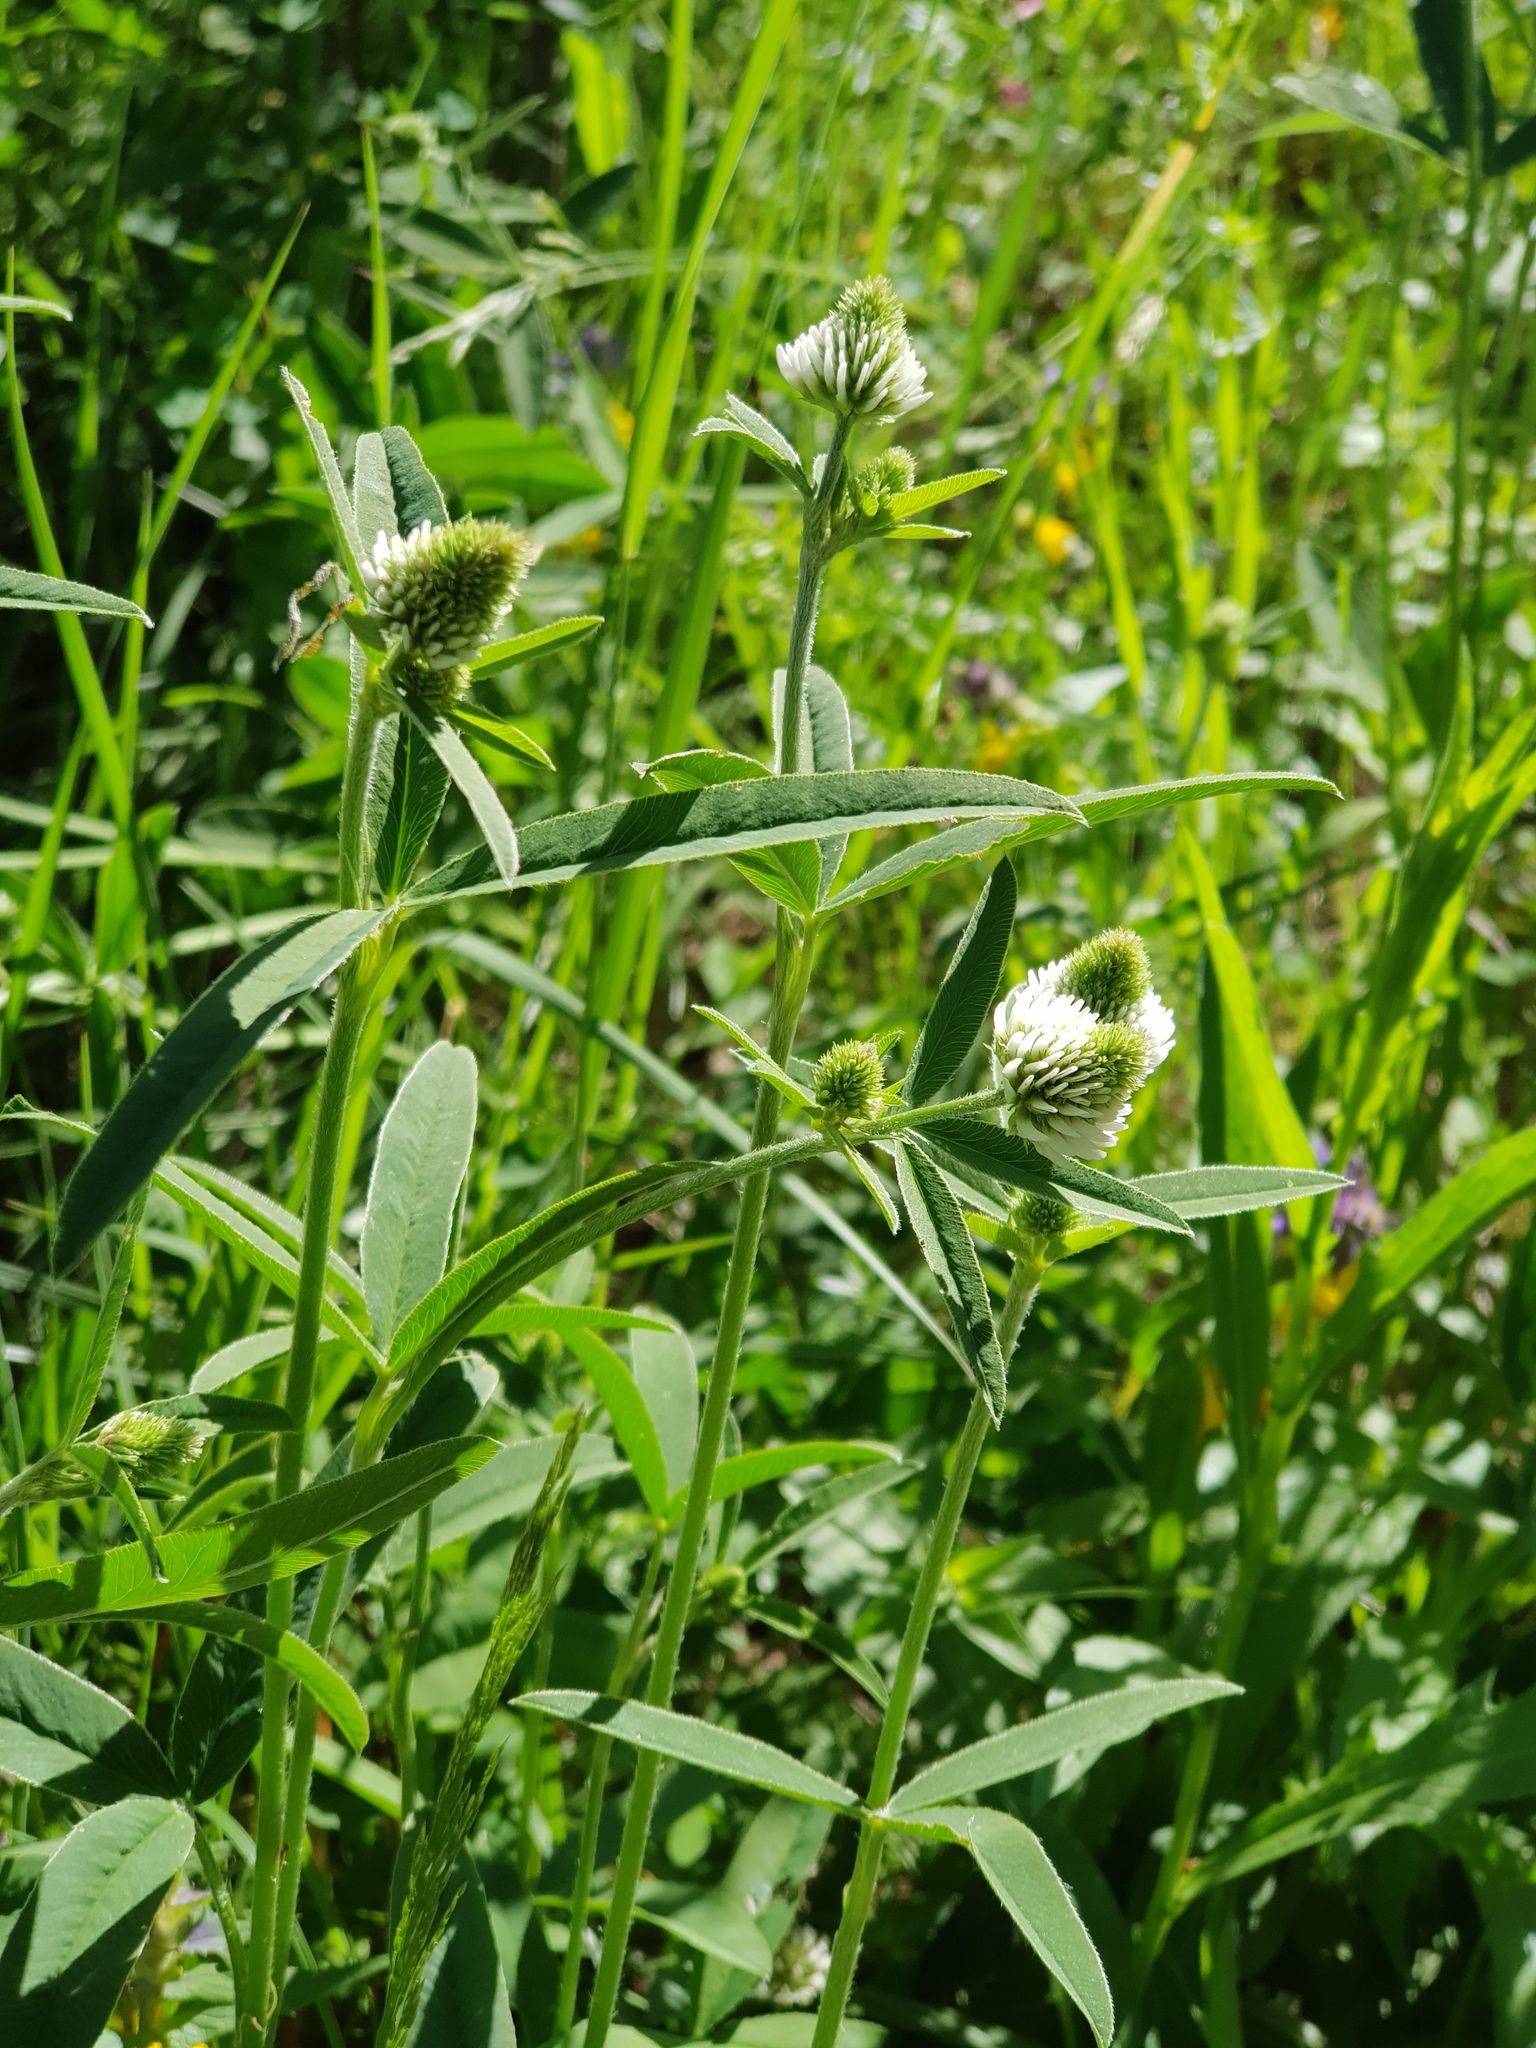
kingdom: Plantae
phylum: Tracheophyta
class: Magnoliopsida
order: Fabales
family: Fabaceae
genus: Trifolium
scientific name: Trifolium montanum
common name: Mountain clover
